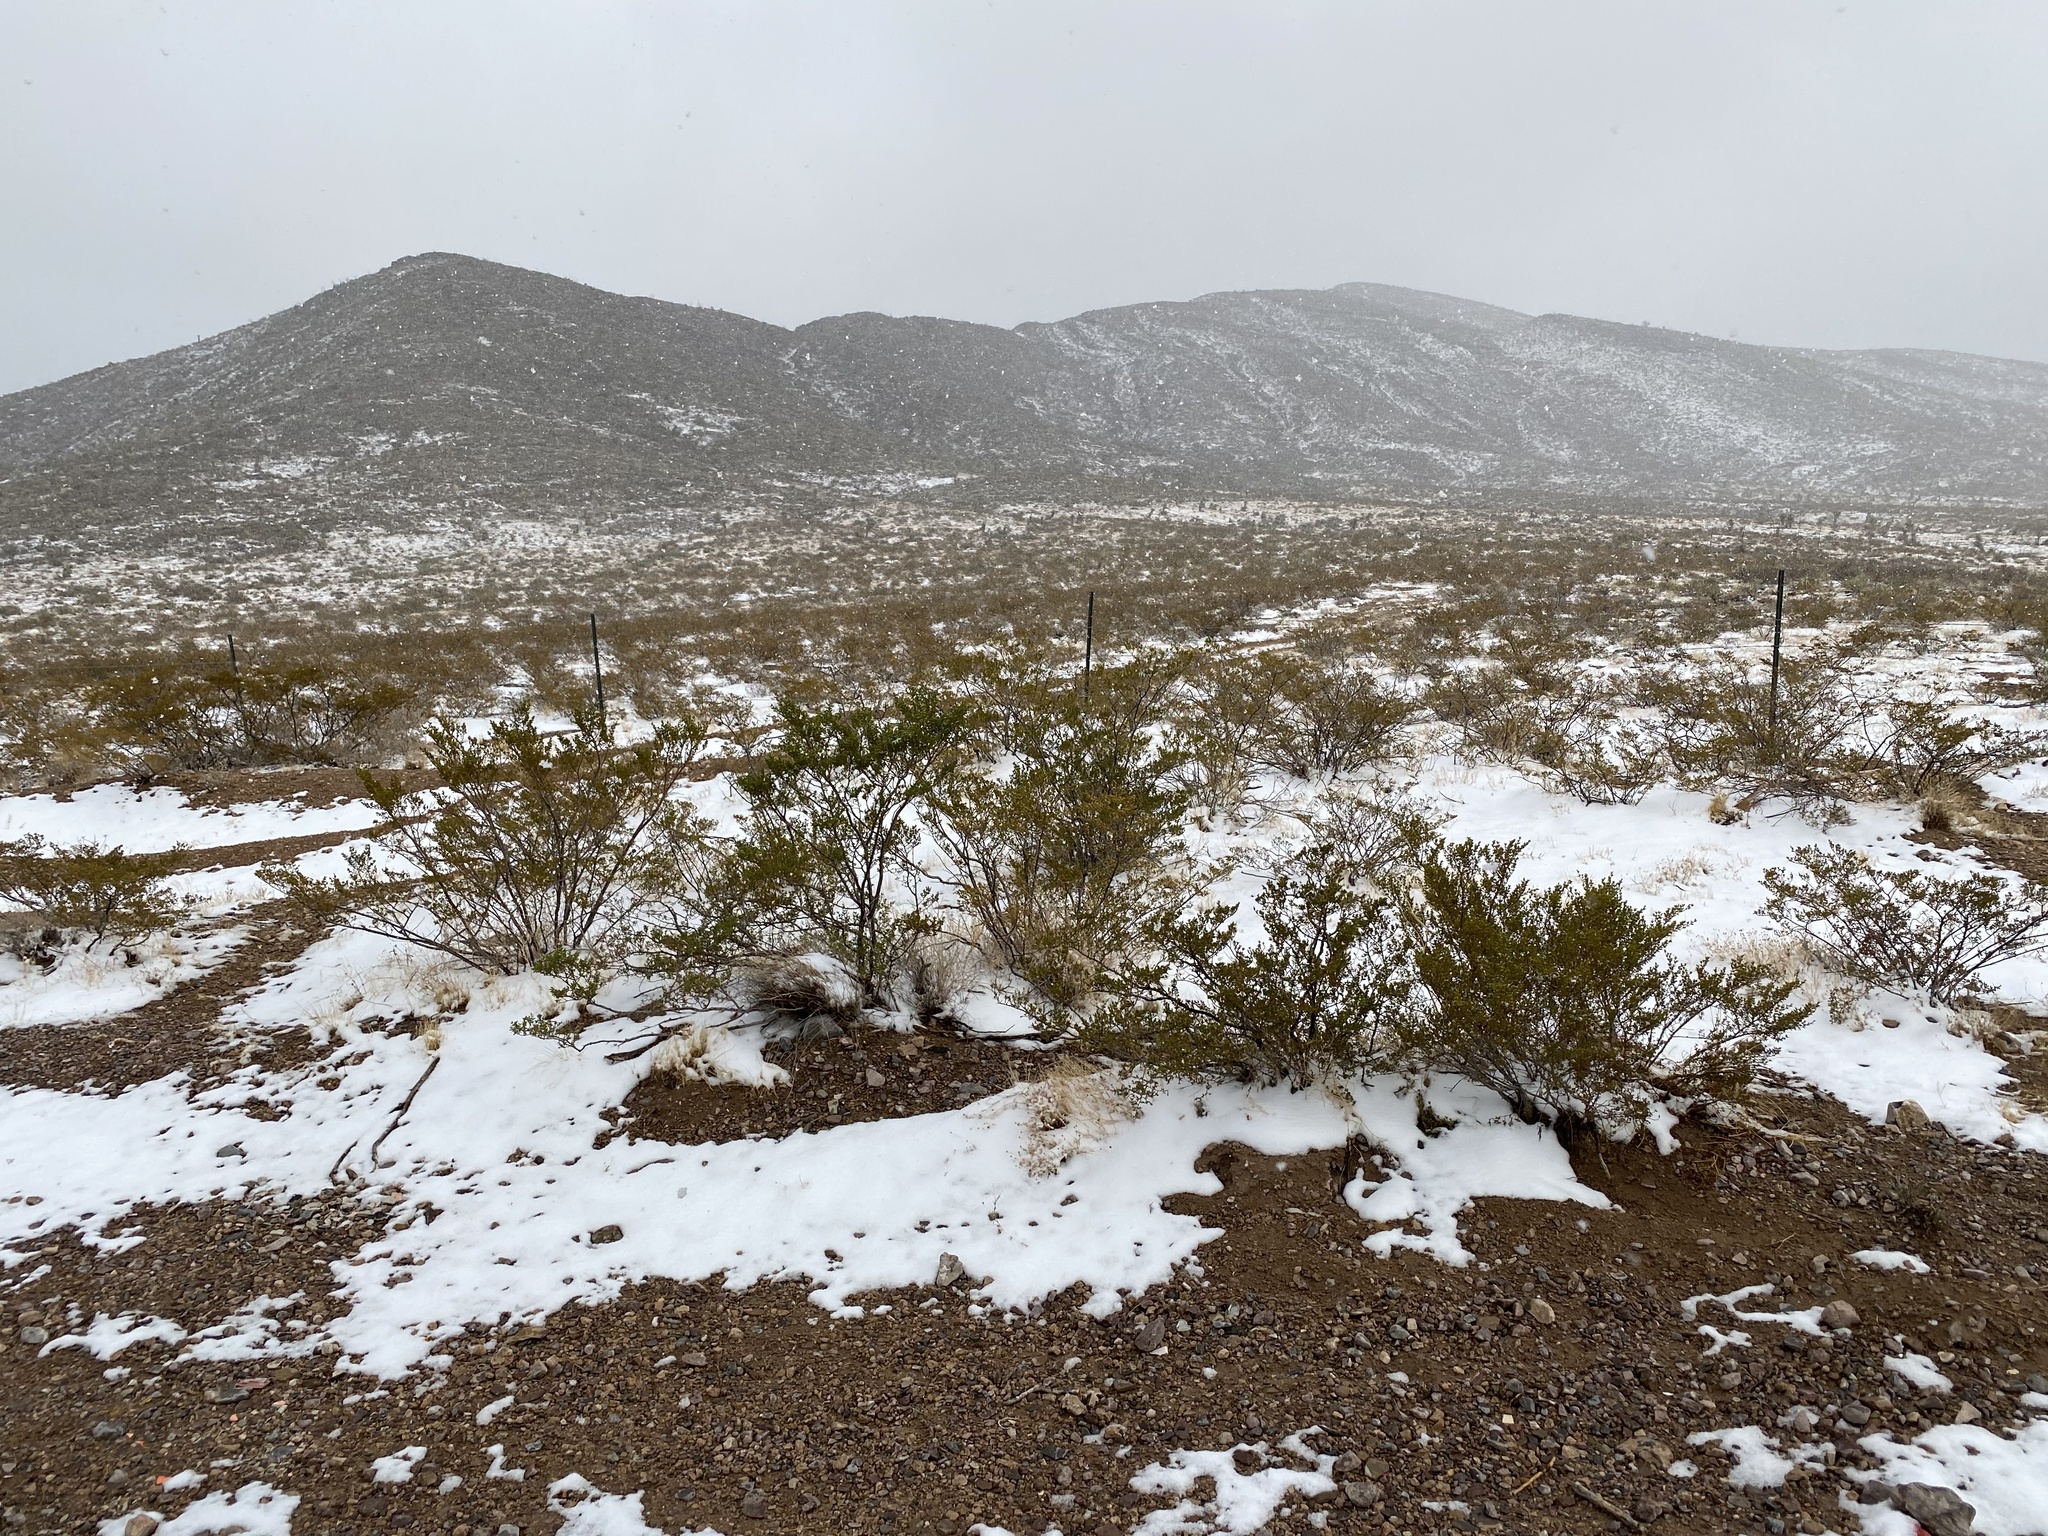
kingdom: Plantae
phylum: Tracheophyta
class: Magnoliopsida
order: Zygophyllales
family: Zygophyllaceae
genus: Larrea
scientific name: Larrea tridentata
